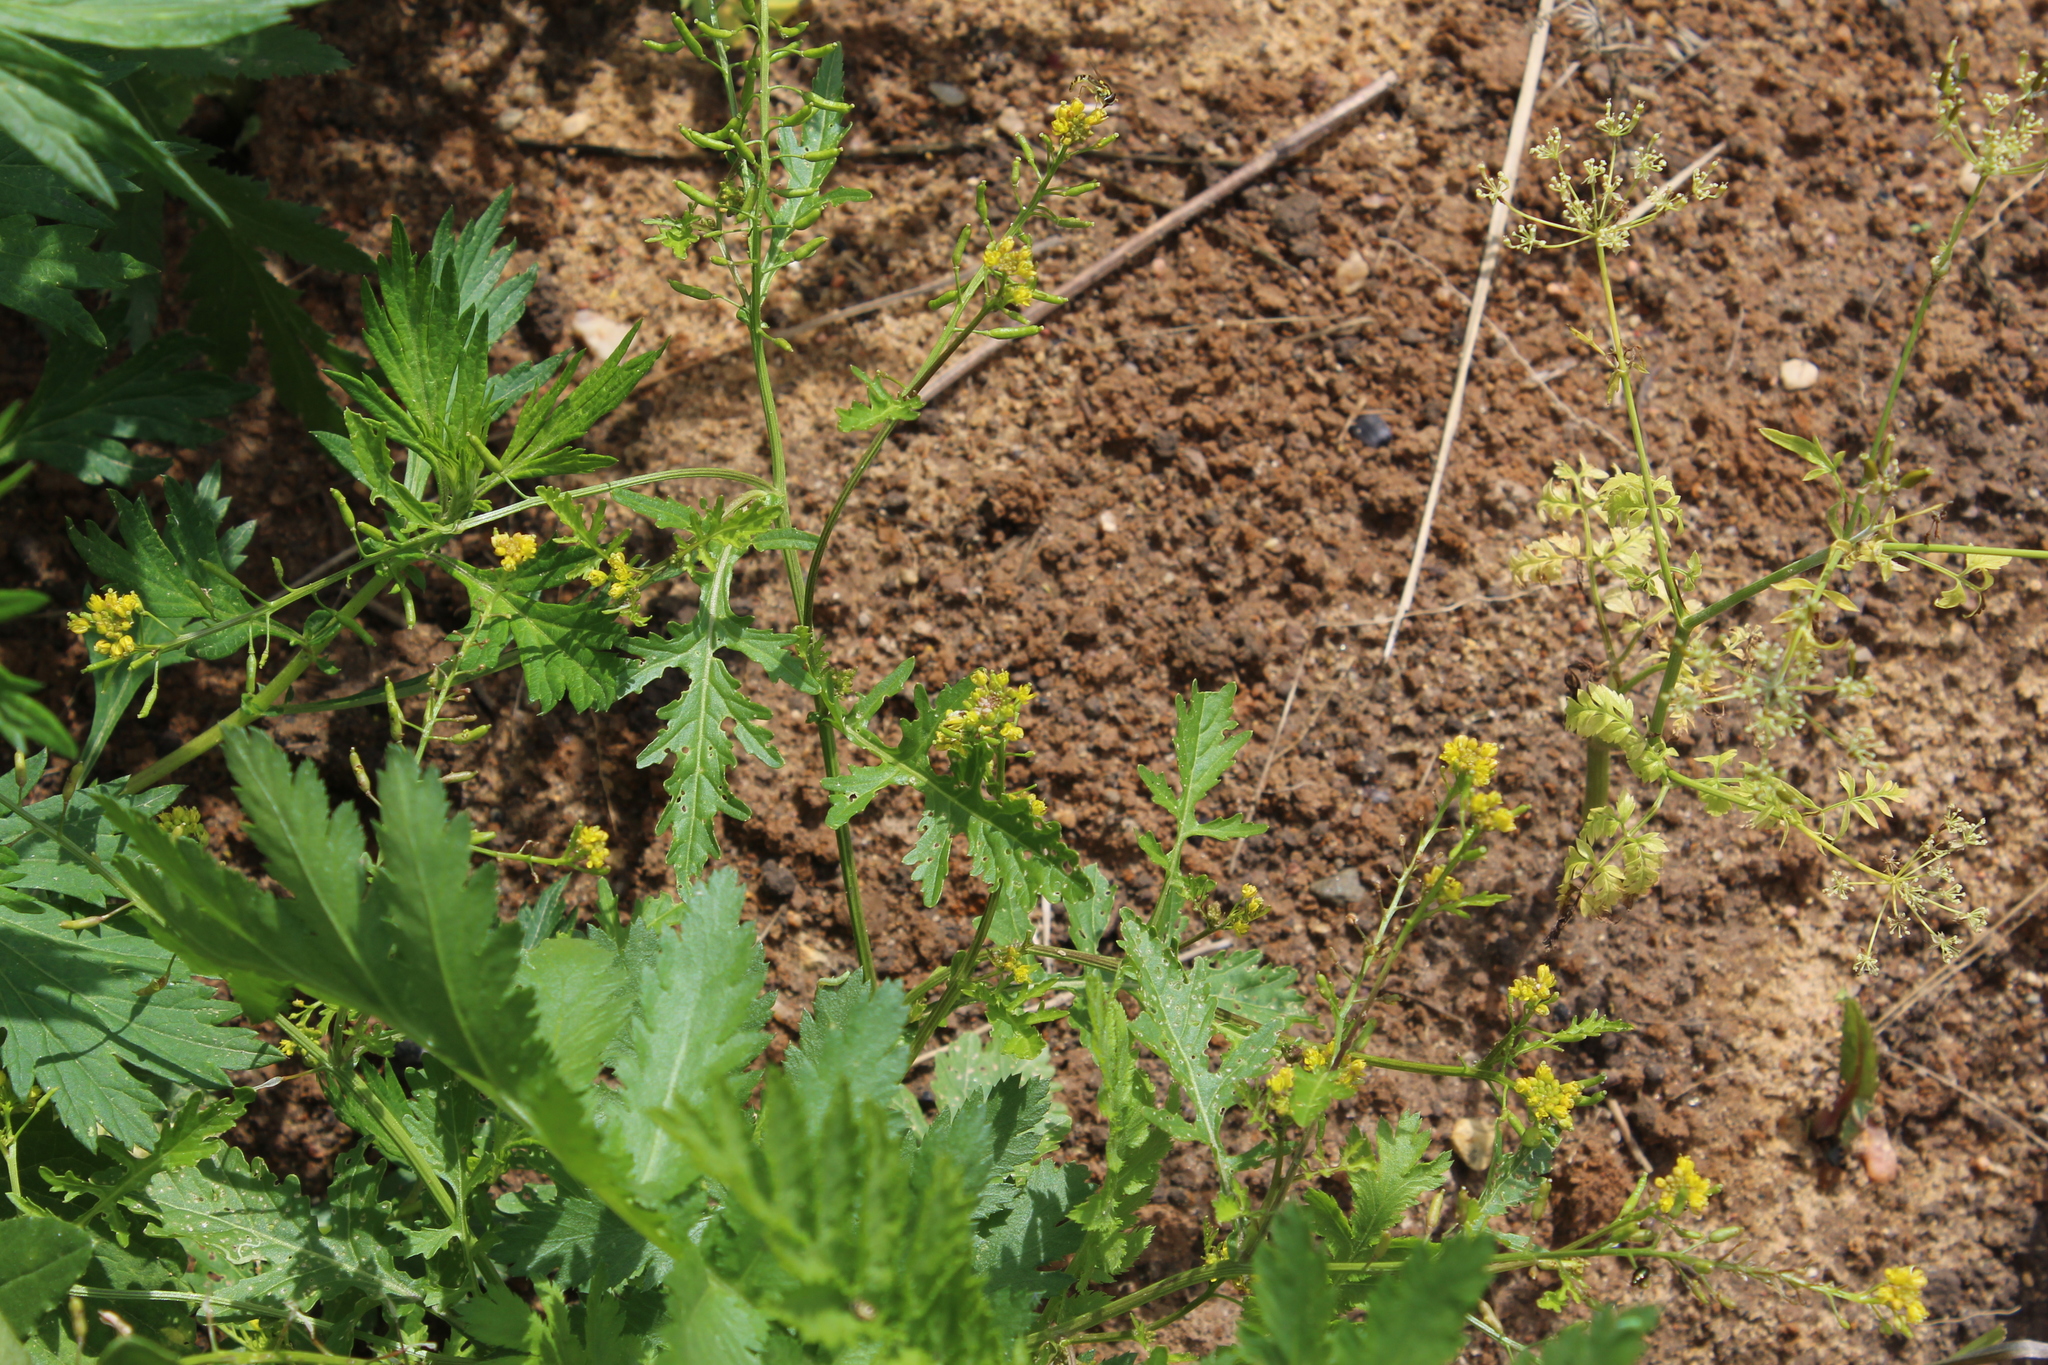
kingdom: Plantae
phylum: Tracheophyta
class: Magnoliopsida
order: Brassicales
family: Brassicaceae
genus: Rorippa
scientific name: Rorippa palustris
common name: Marsh yellow-cress
